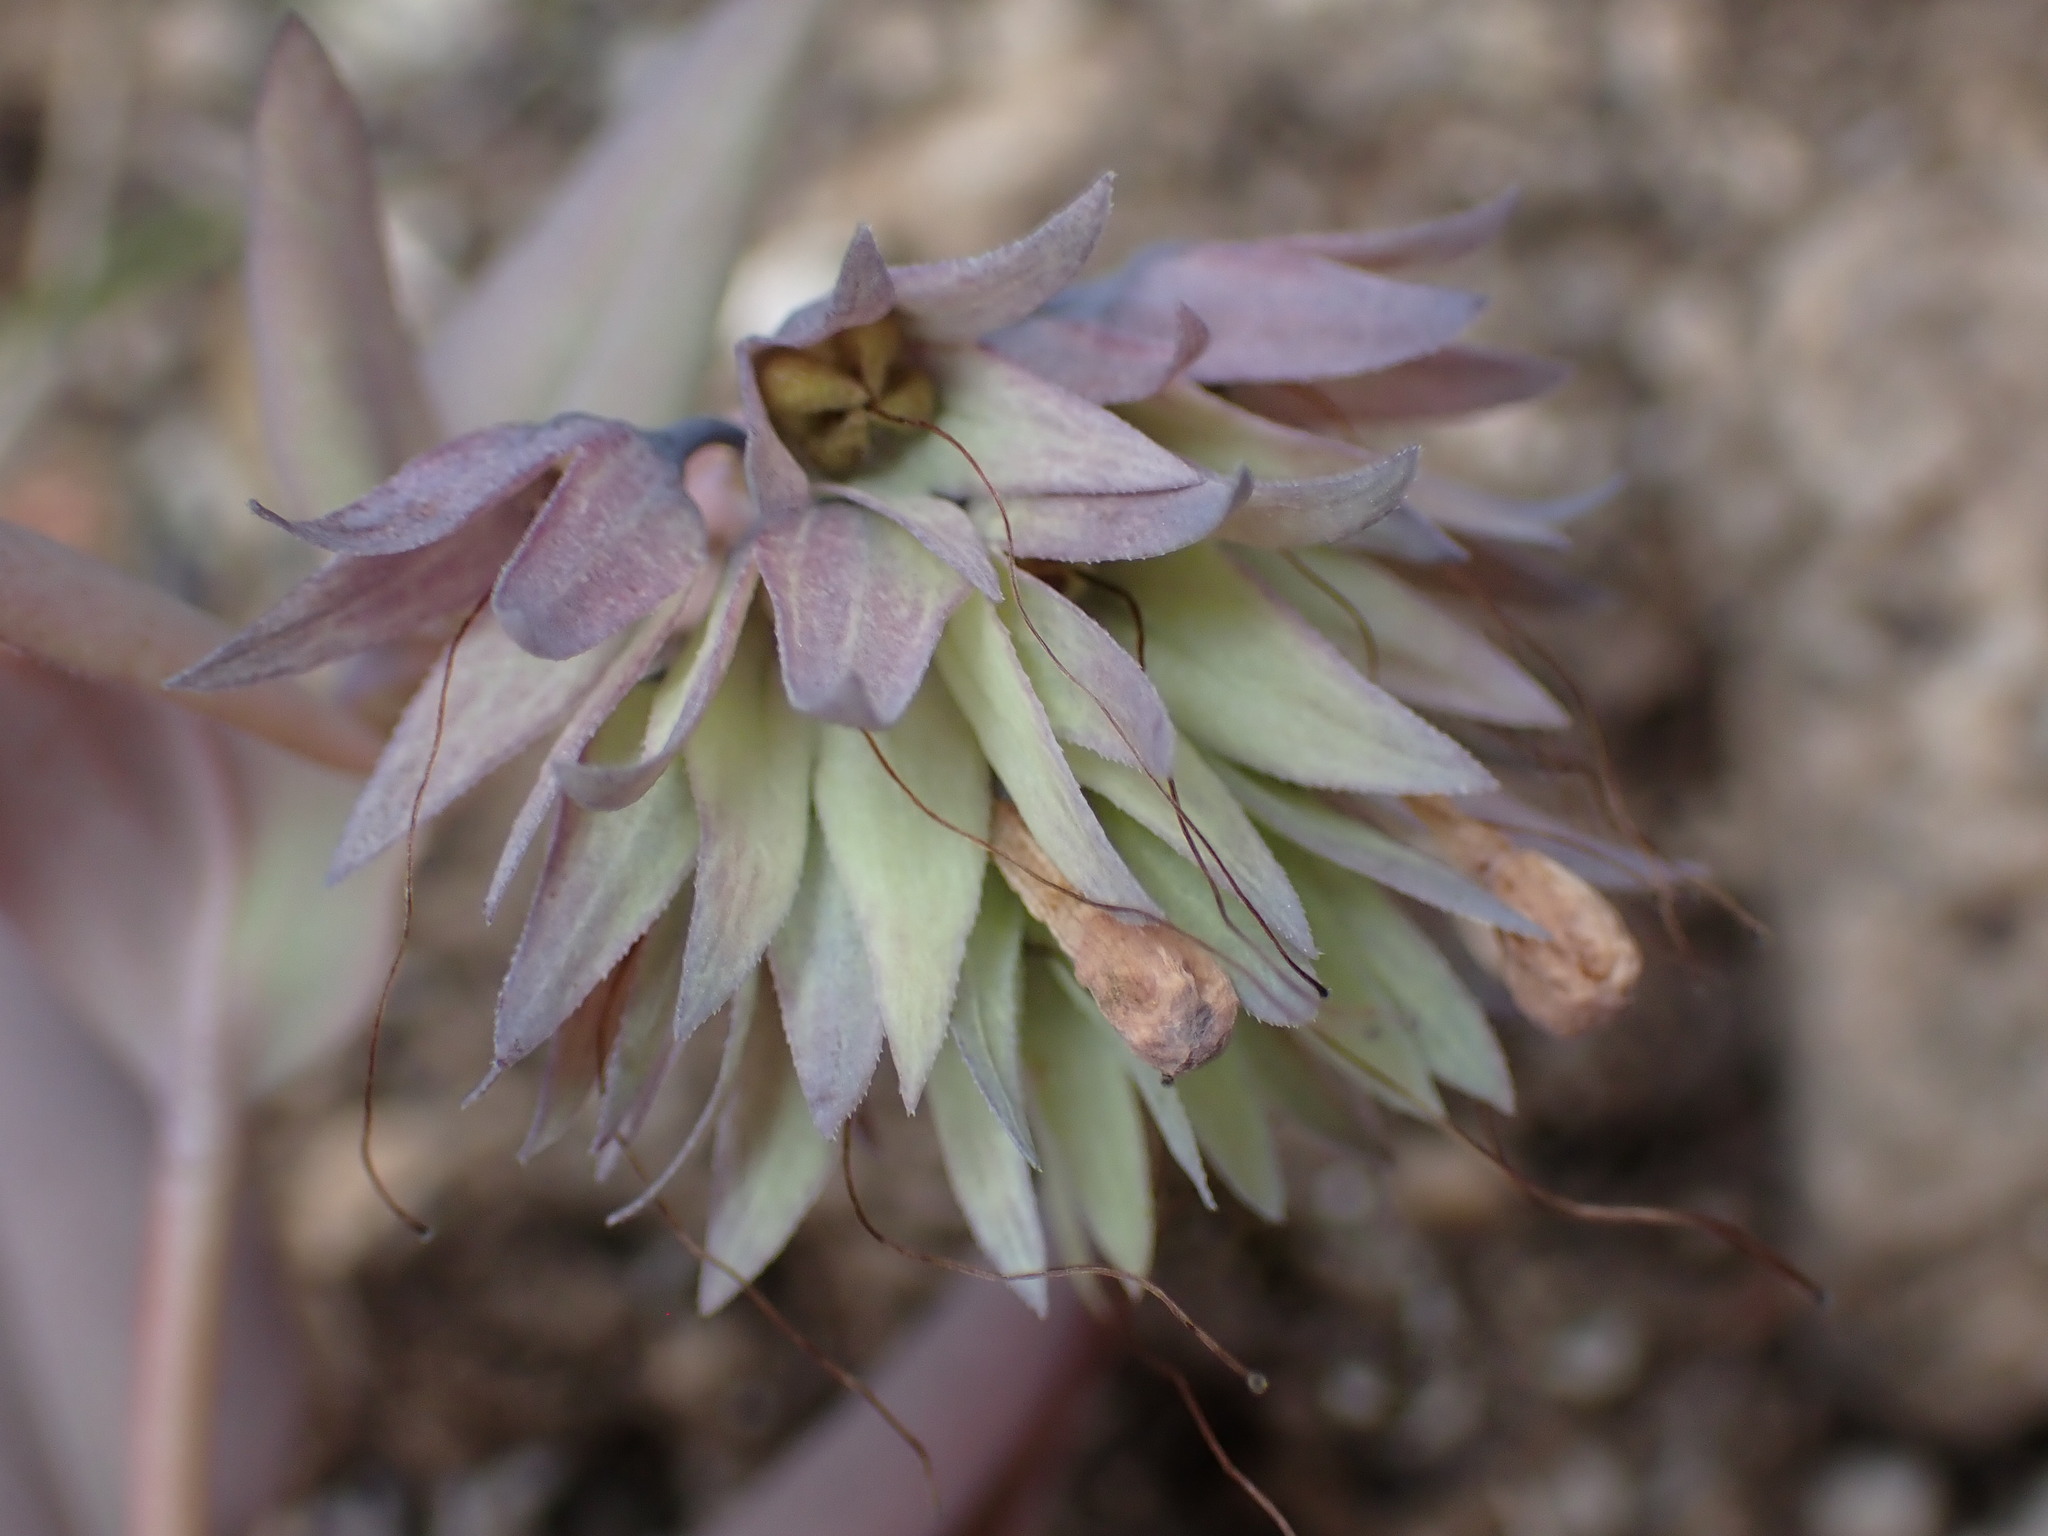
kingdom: Plantae
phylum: Tracheophyta
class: Magnoliopsida
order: Boraginales
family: Boraginaceae
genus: Mertensia
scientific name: Mertensia longiflora
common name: Large-flowered bluebells
